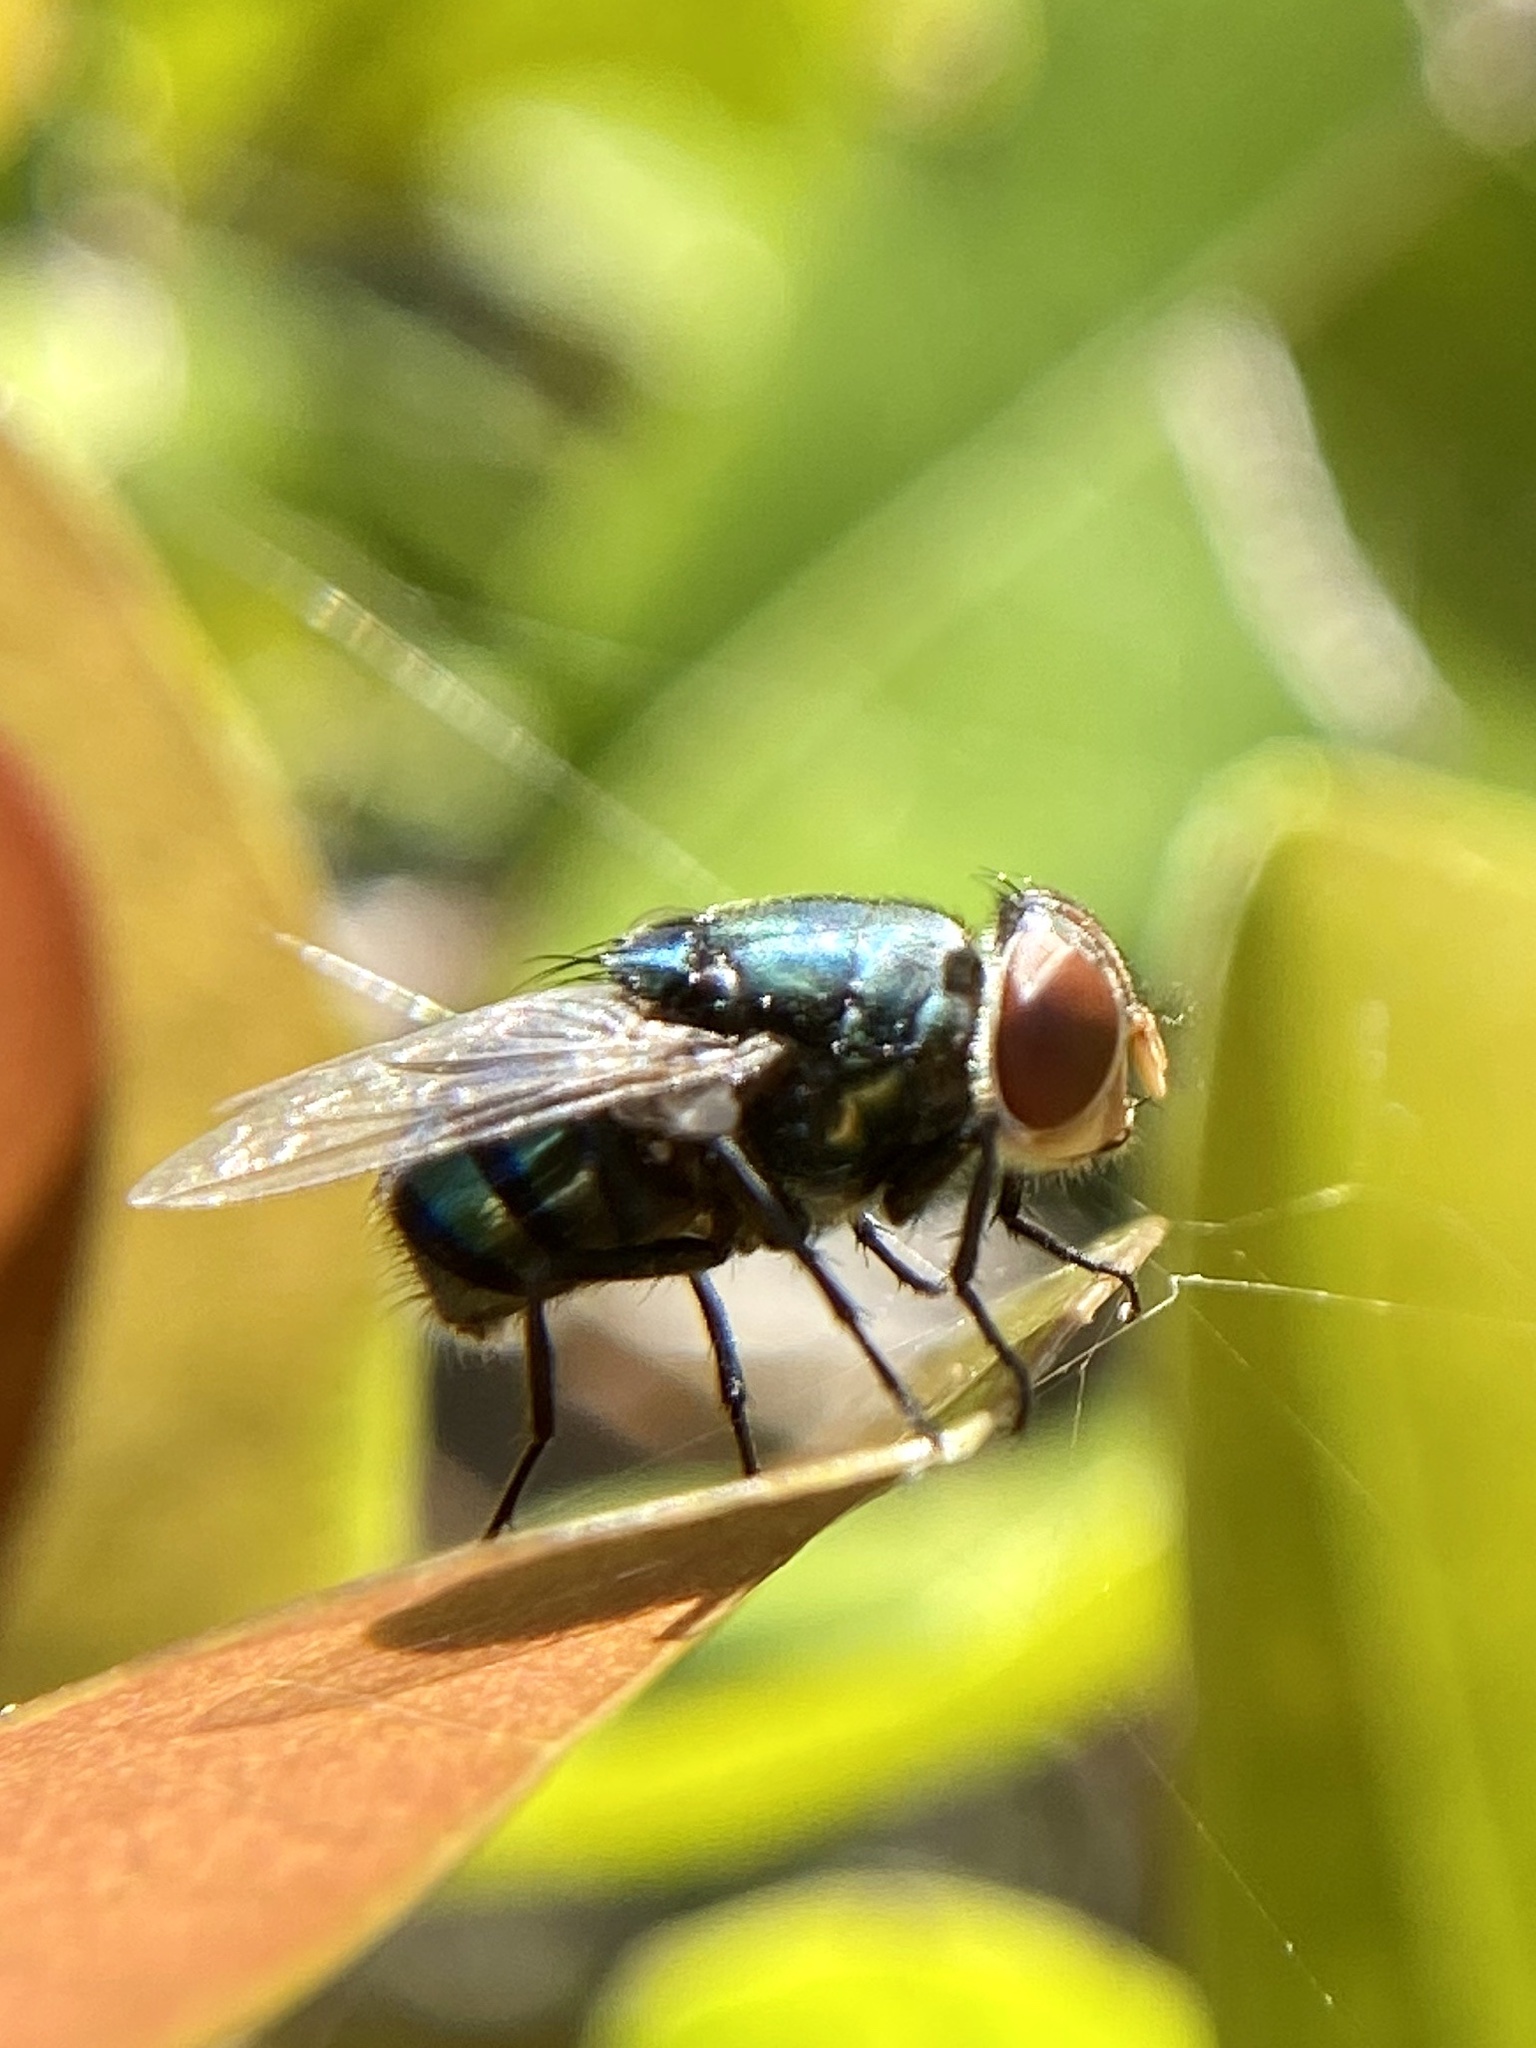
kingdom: Animalia
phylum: Arthropoda
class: Insecta
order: Diptera
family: Calliphoridae
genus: Chrysomya
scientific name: Chrysomya megacephala
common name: Blow fly
